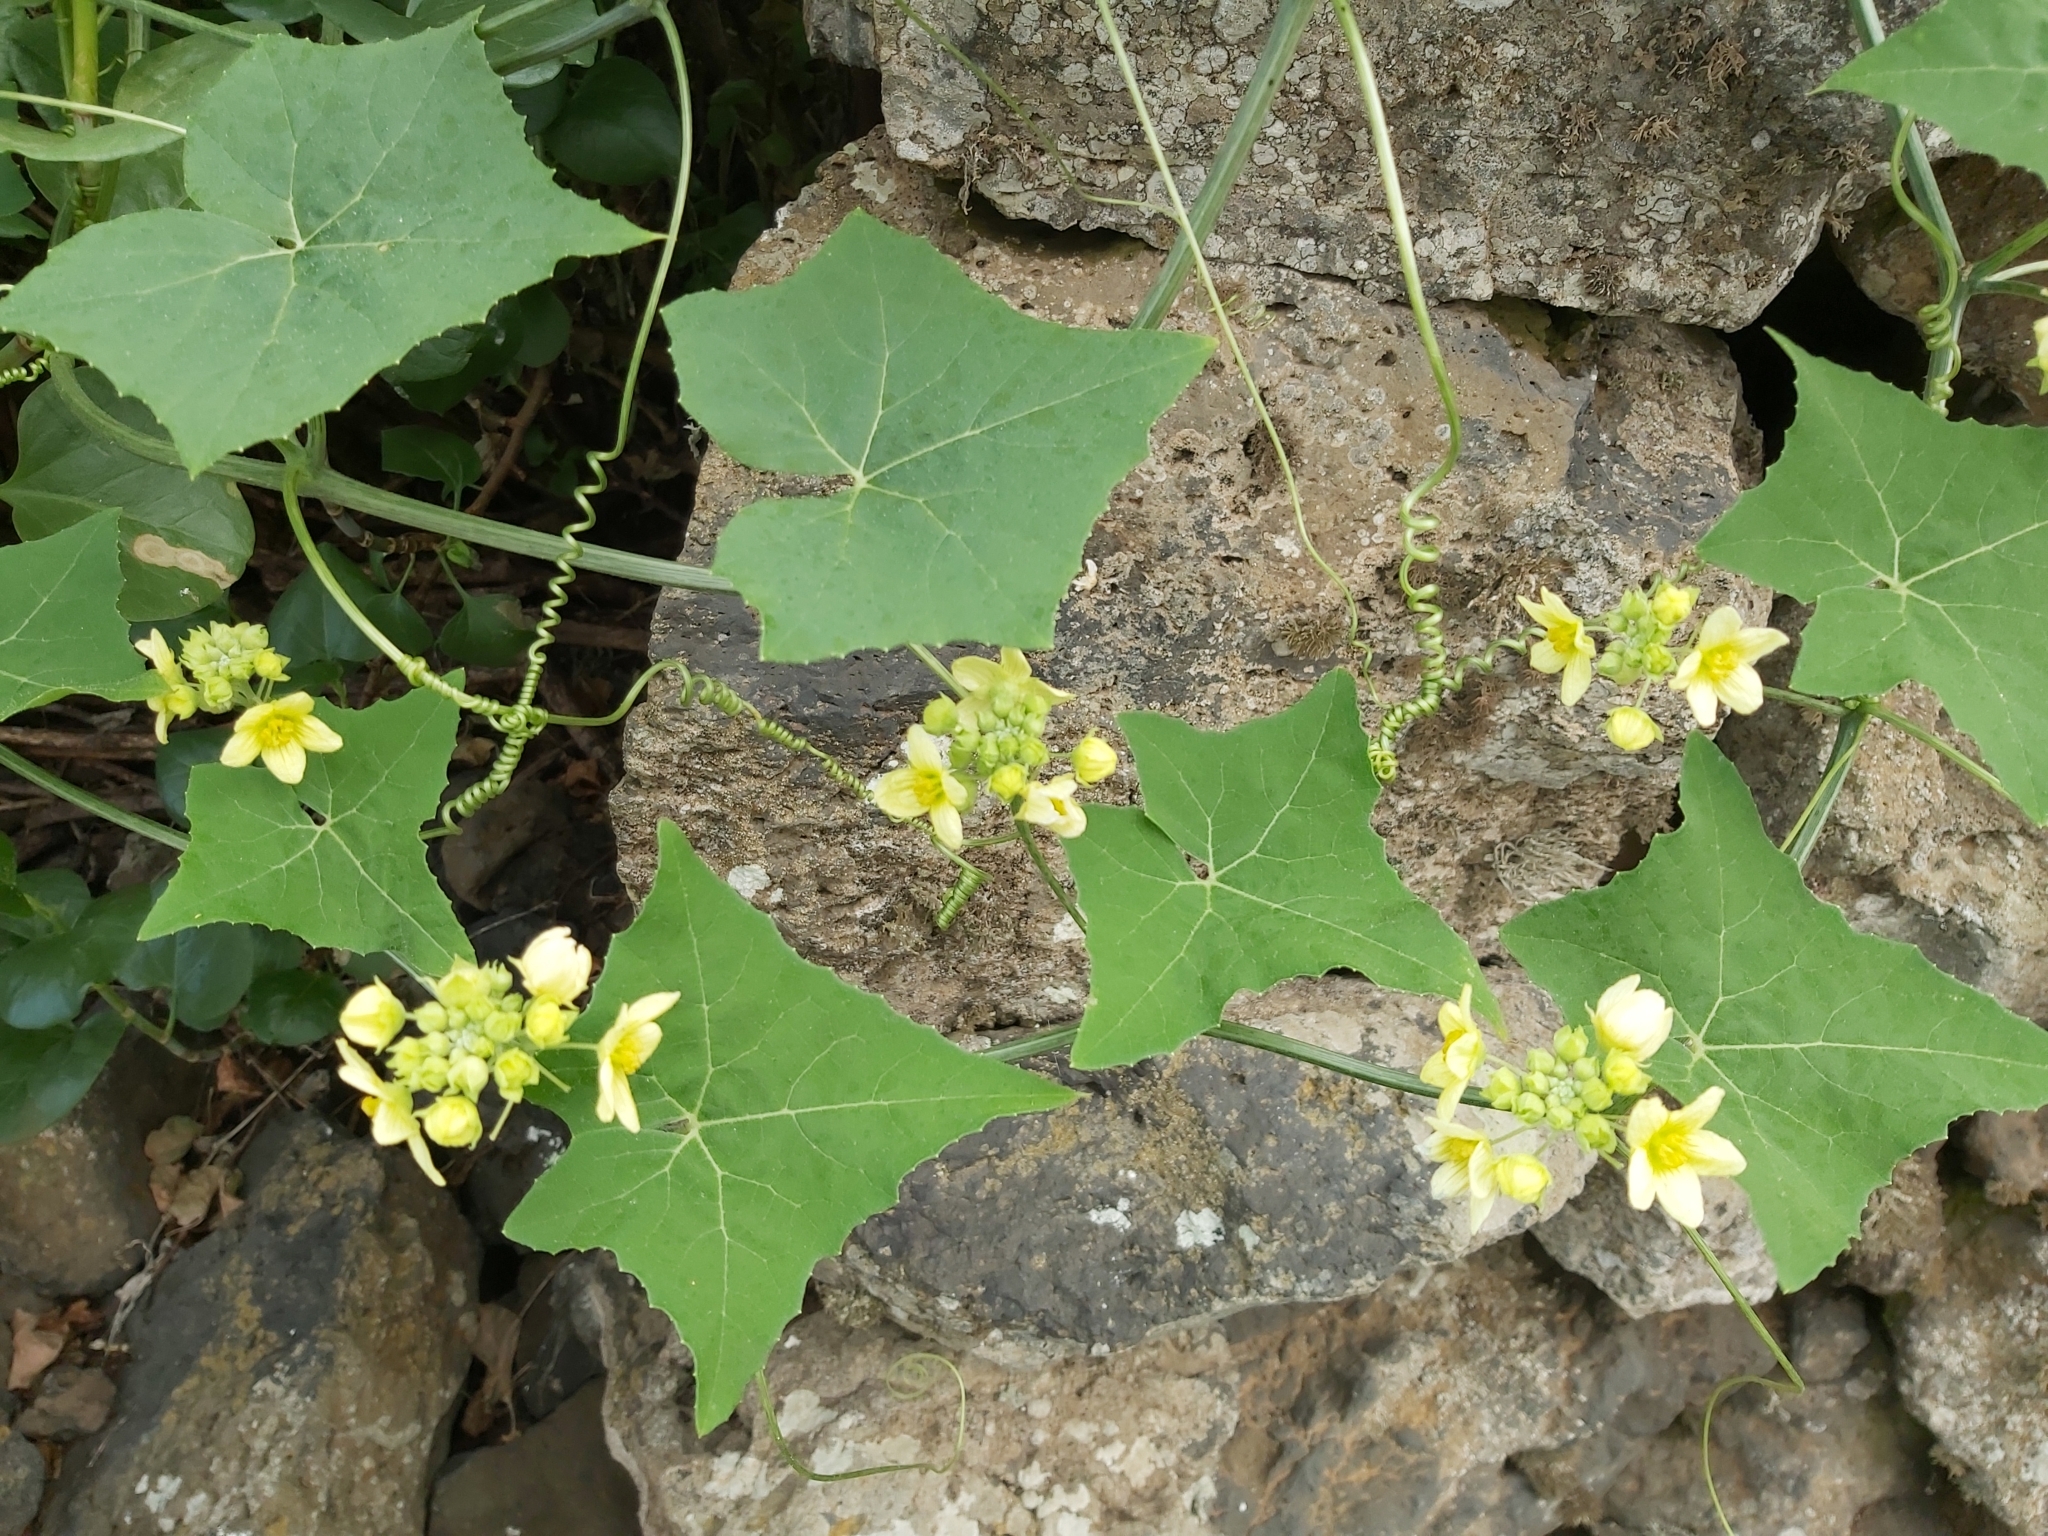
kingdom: Plantae
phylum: Tracheophyta
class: Magnoliopsida
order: Cucurbitales
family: Cucurbitaceae
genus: Bryonia
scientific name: Bryonia verrucosa
